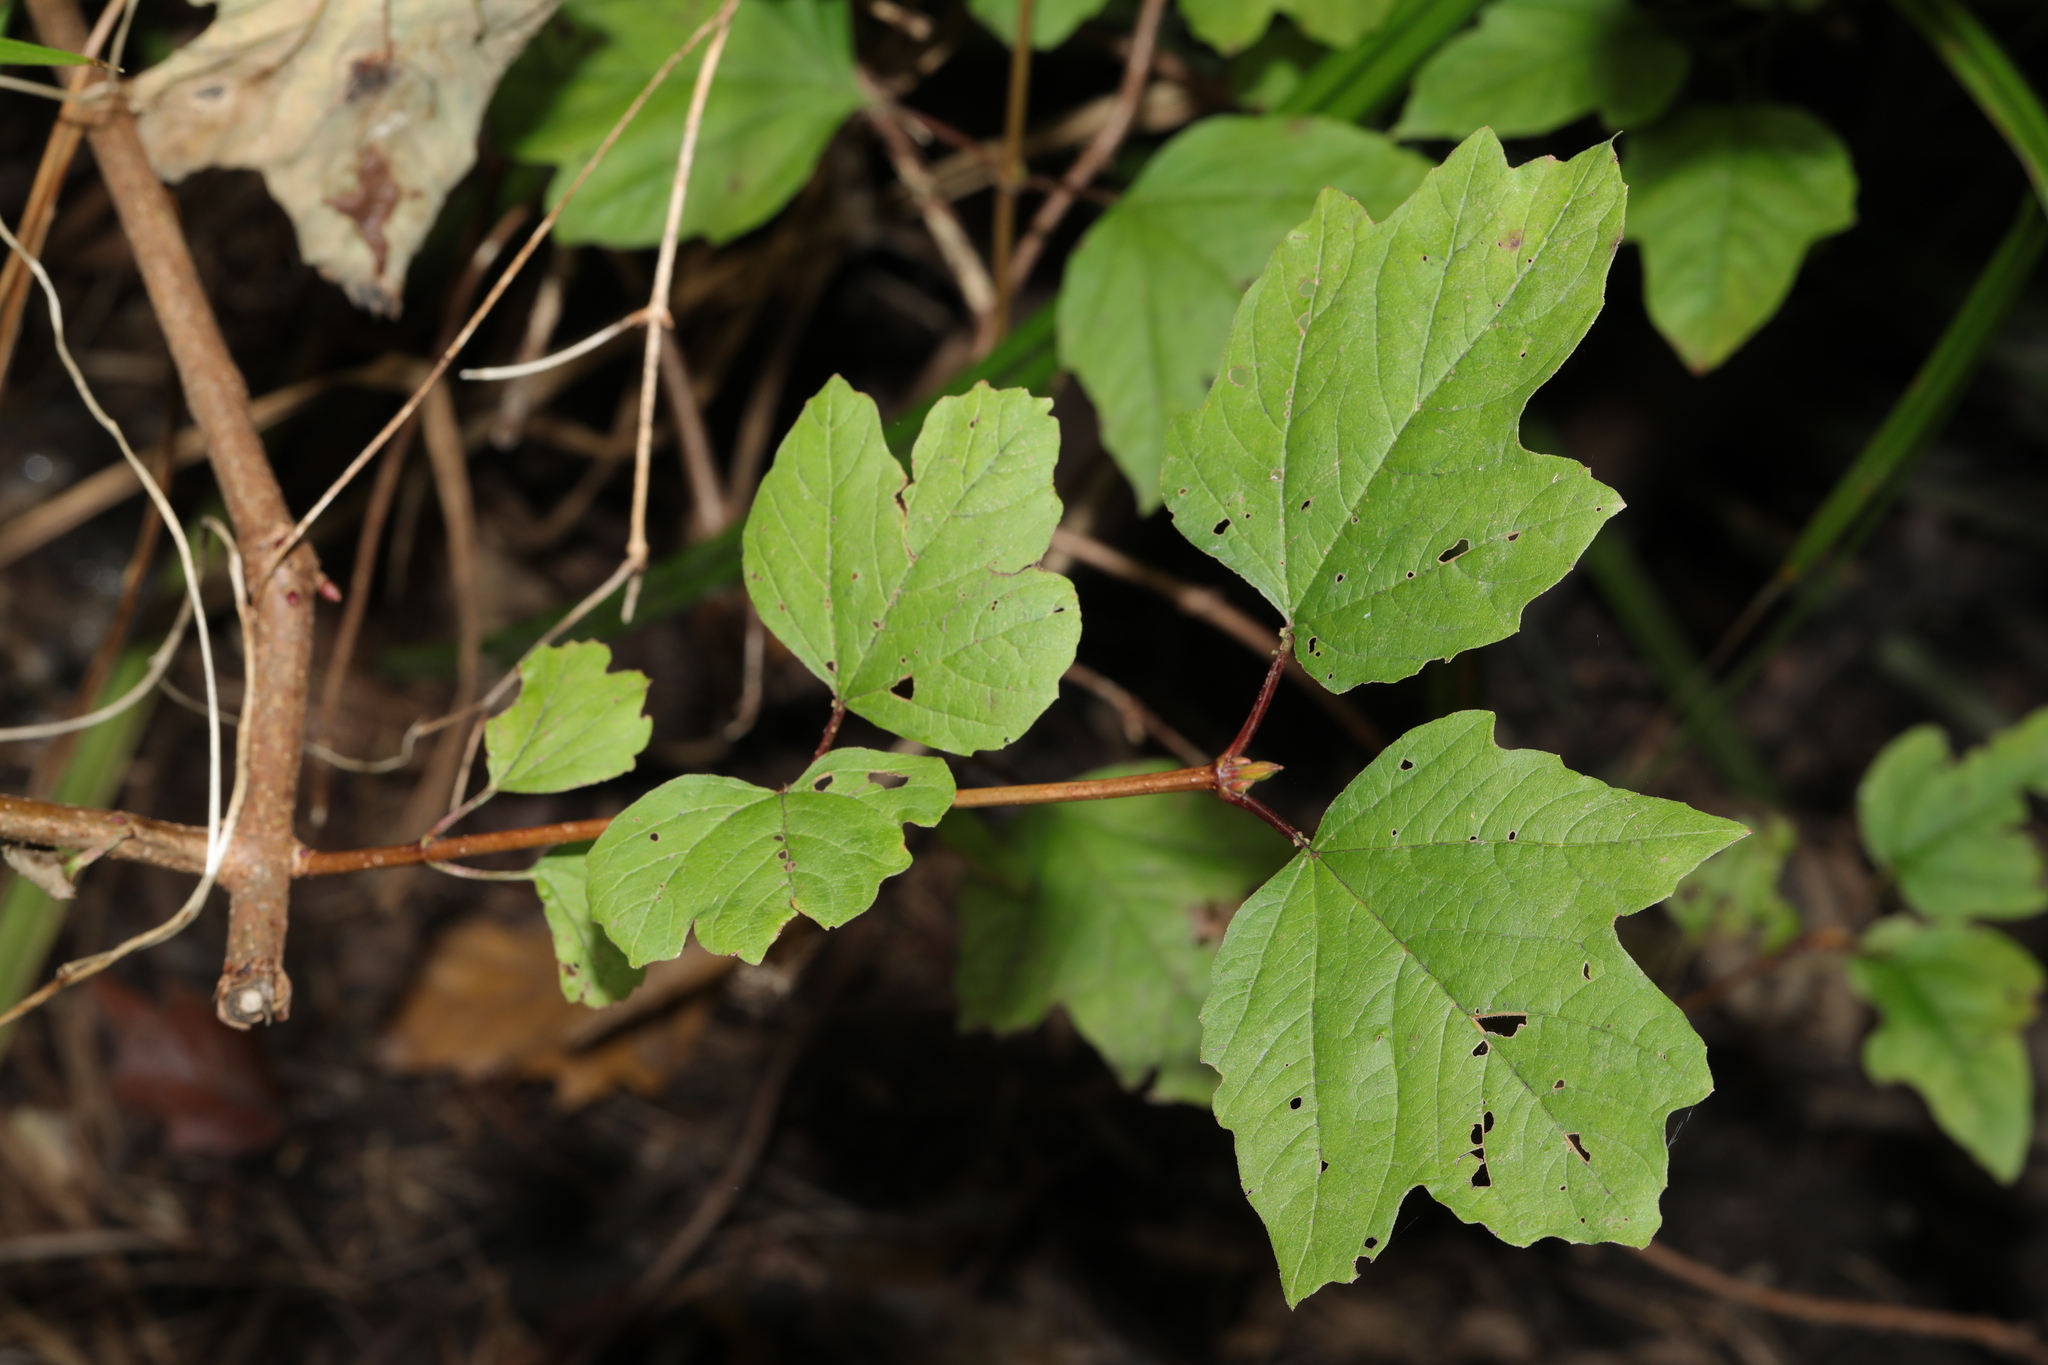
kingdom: Plantae
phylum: Tracheophyta
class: Magnoliopsida
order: Dipsacales
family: Viburnaceae
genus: Viburnum
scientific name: Viburnum opulus
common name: Guelder-rose
